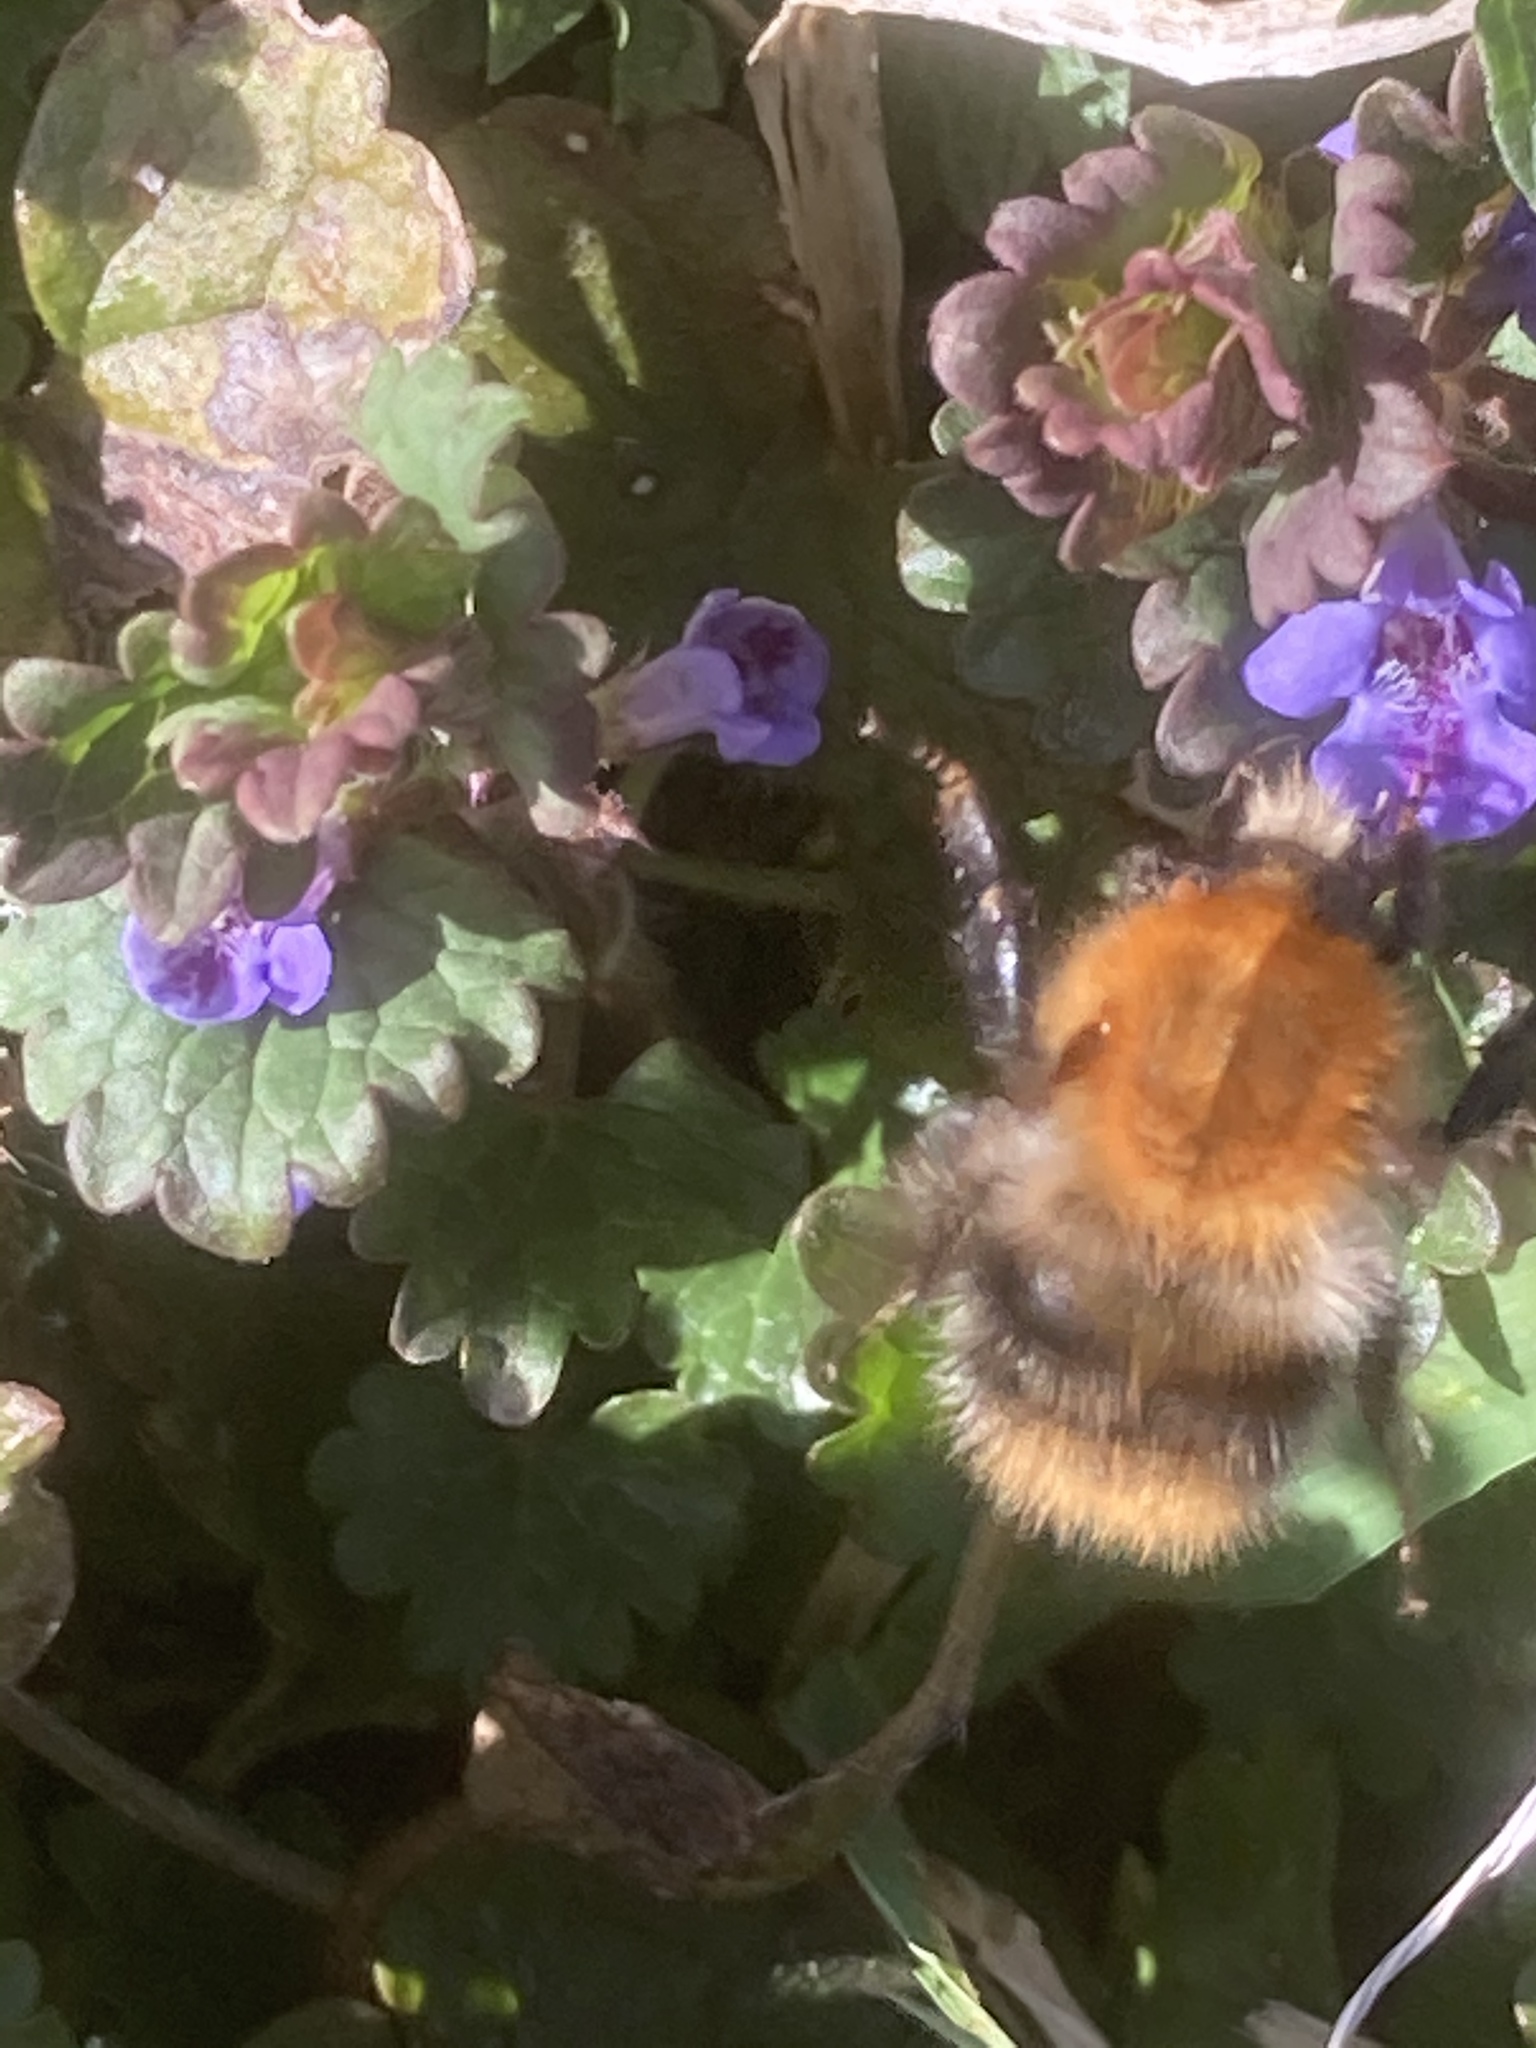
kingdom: Animalia
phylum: Arthropoda
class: Insecta
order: Hymenoptera
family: Apidae
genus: Bombus
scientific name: Bombus pascuorum
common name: Common carder bee
